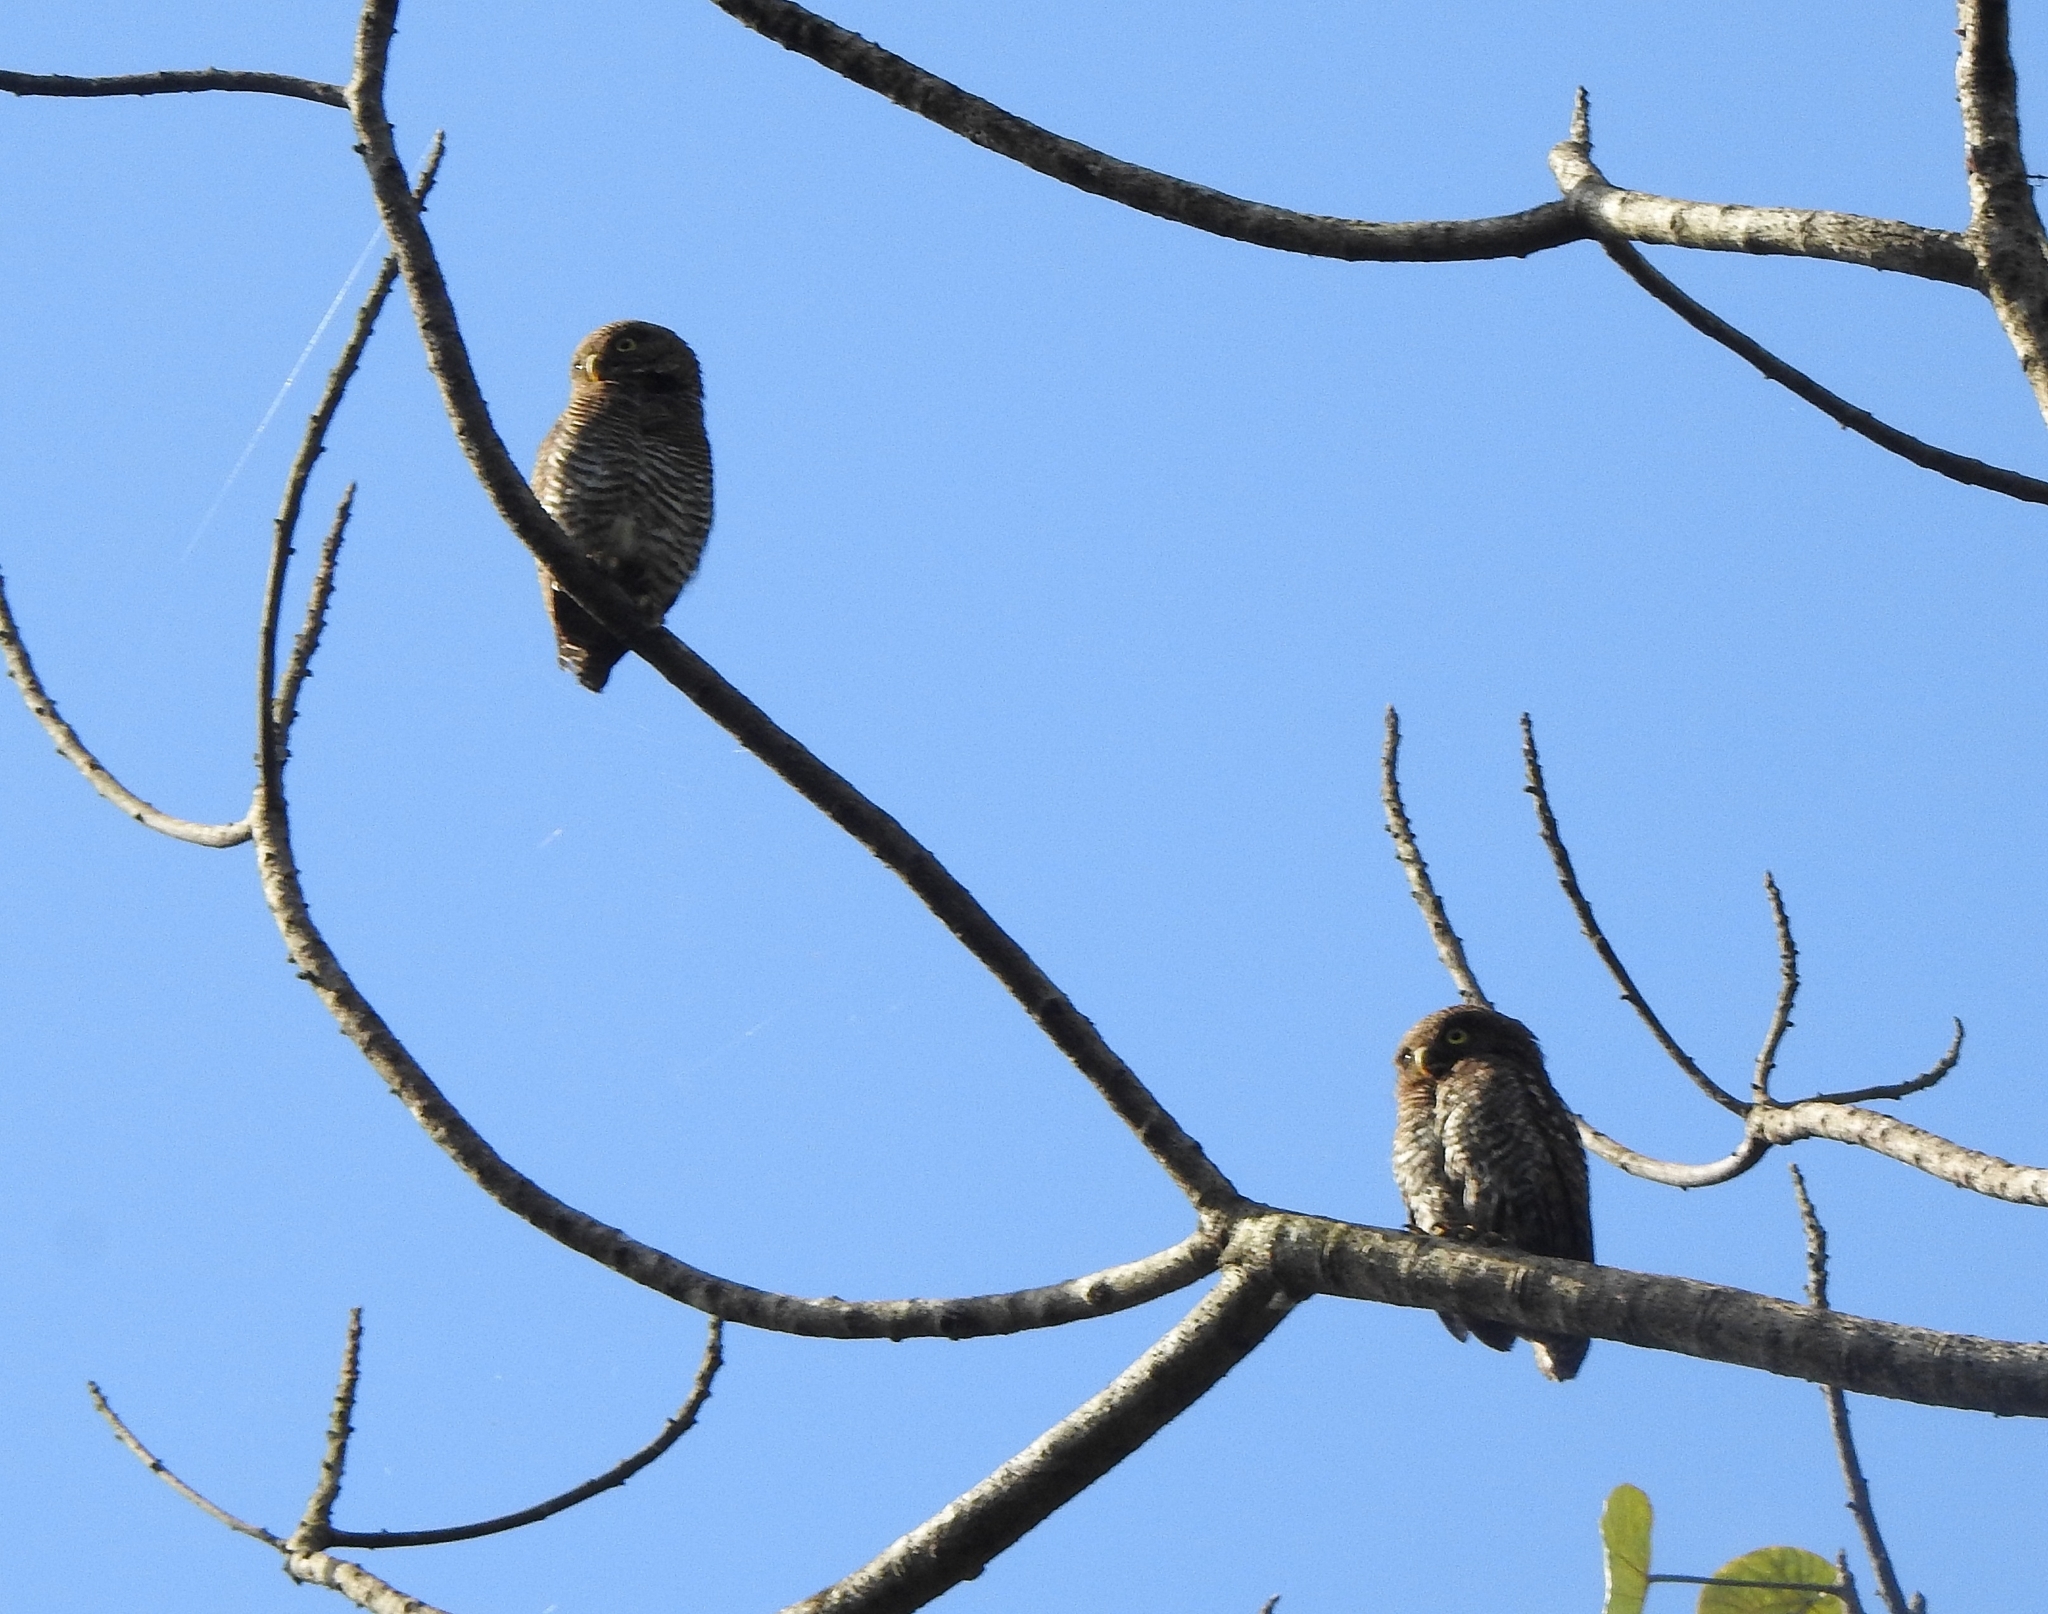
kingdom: Animalia
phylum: Chordata
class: Aves
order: Strigiformes
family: Strigidae
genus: Glaucidium
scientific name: Glaucidium radiatum
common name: Jungle owlet
